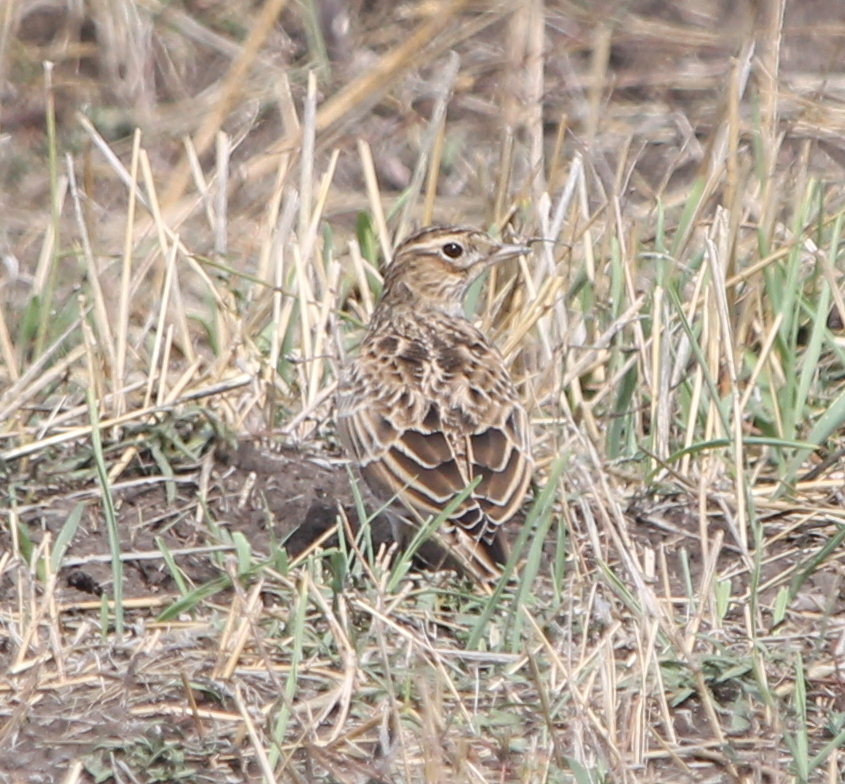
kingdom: Animalia
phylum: Chordata
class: Aves
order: Passeriformes
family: Alaudidae
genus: Alauda
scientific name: Alauda arvensis
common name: Eurasian skylark
